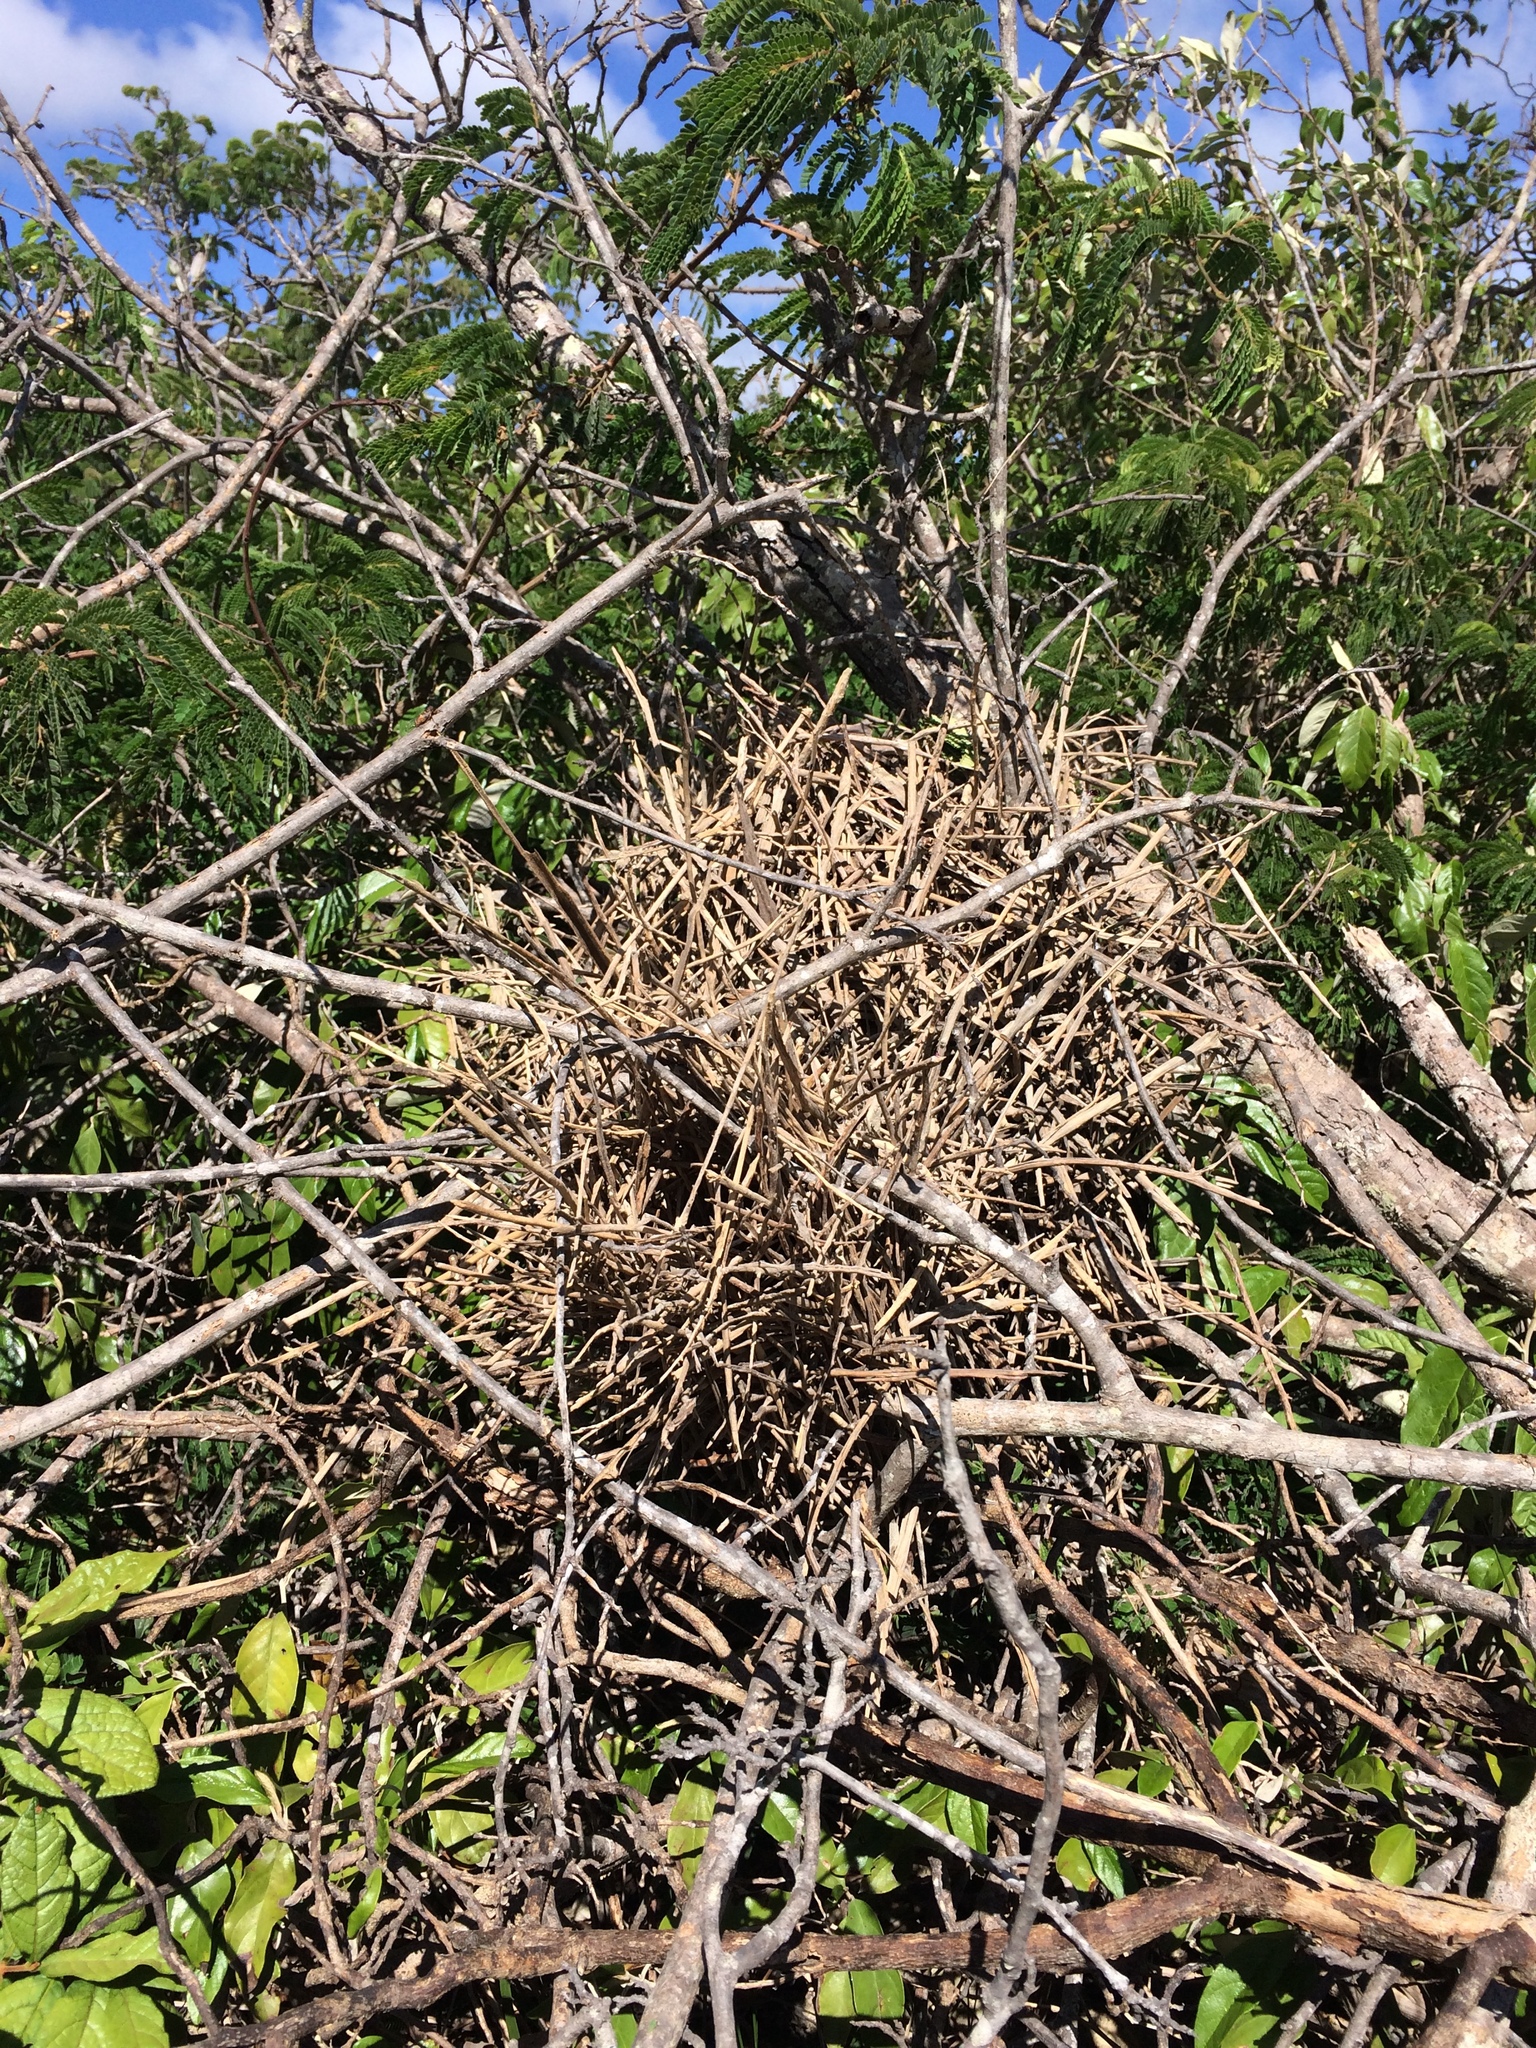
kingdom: Animalia
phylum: Chordata
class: Aves
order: Passeriformes
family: Furnariidae
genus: Gyalophylax
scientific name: Gyalophylax hellmayri
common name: Red-shouldered spinetail
